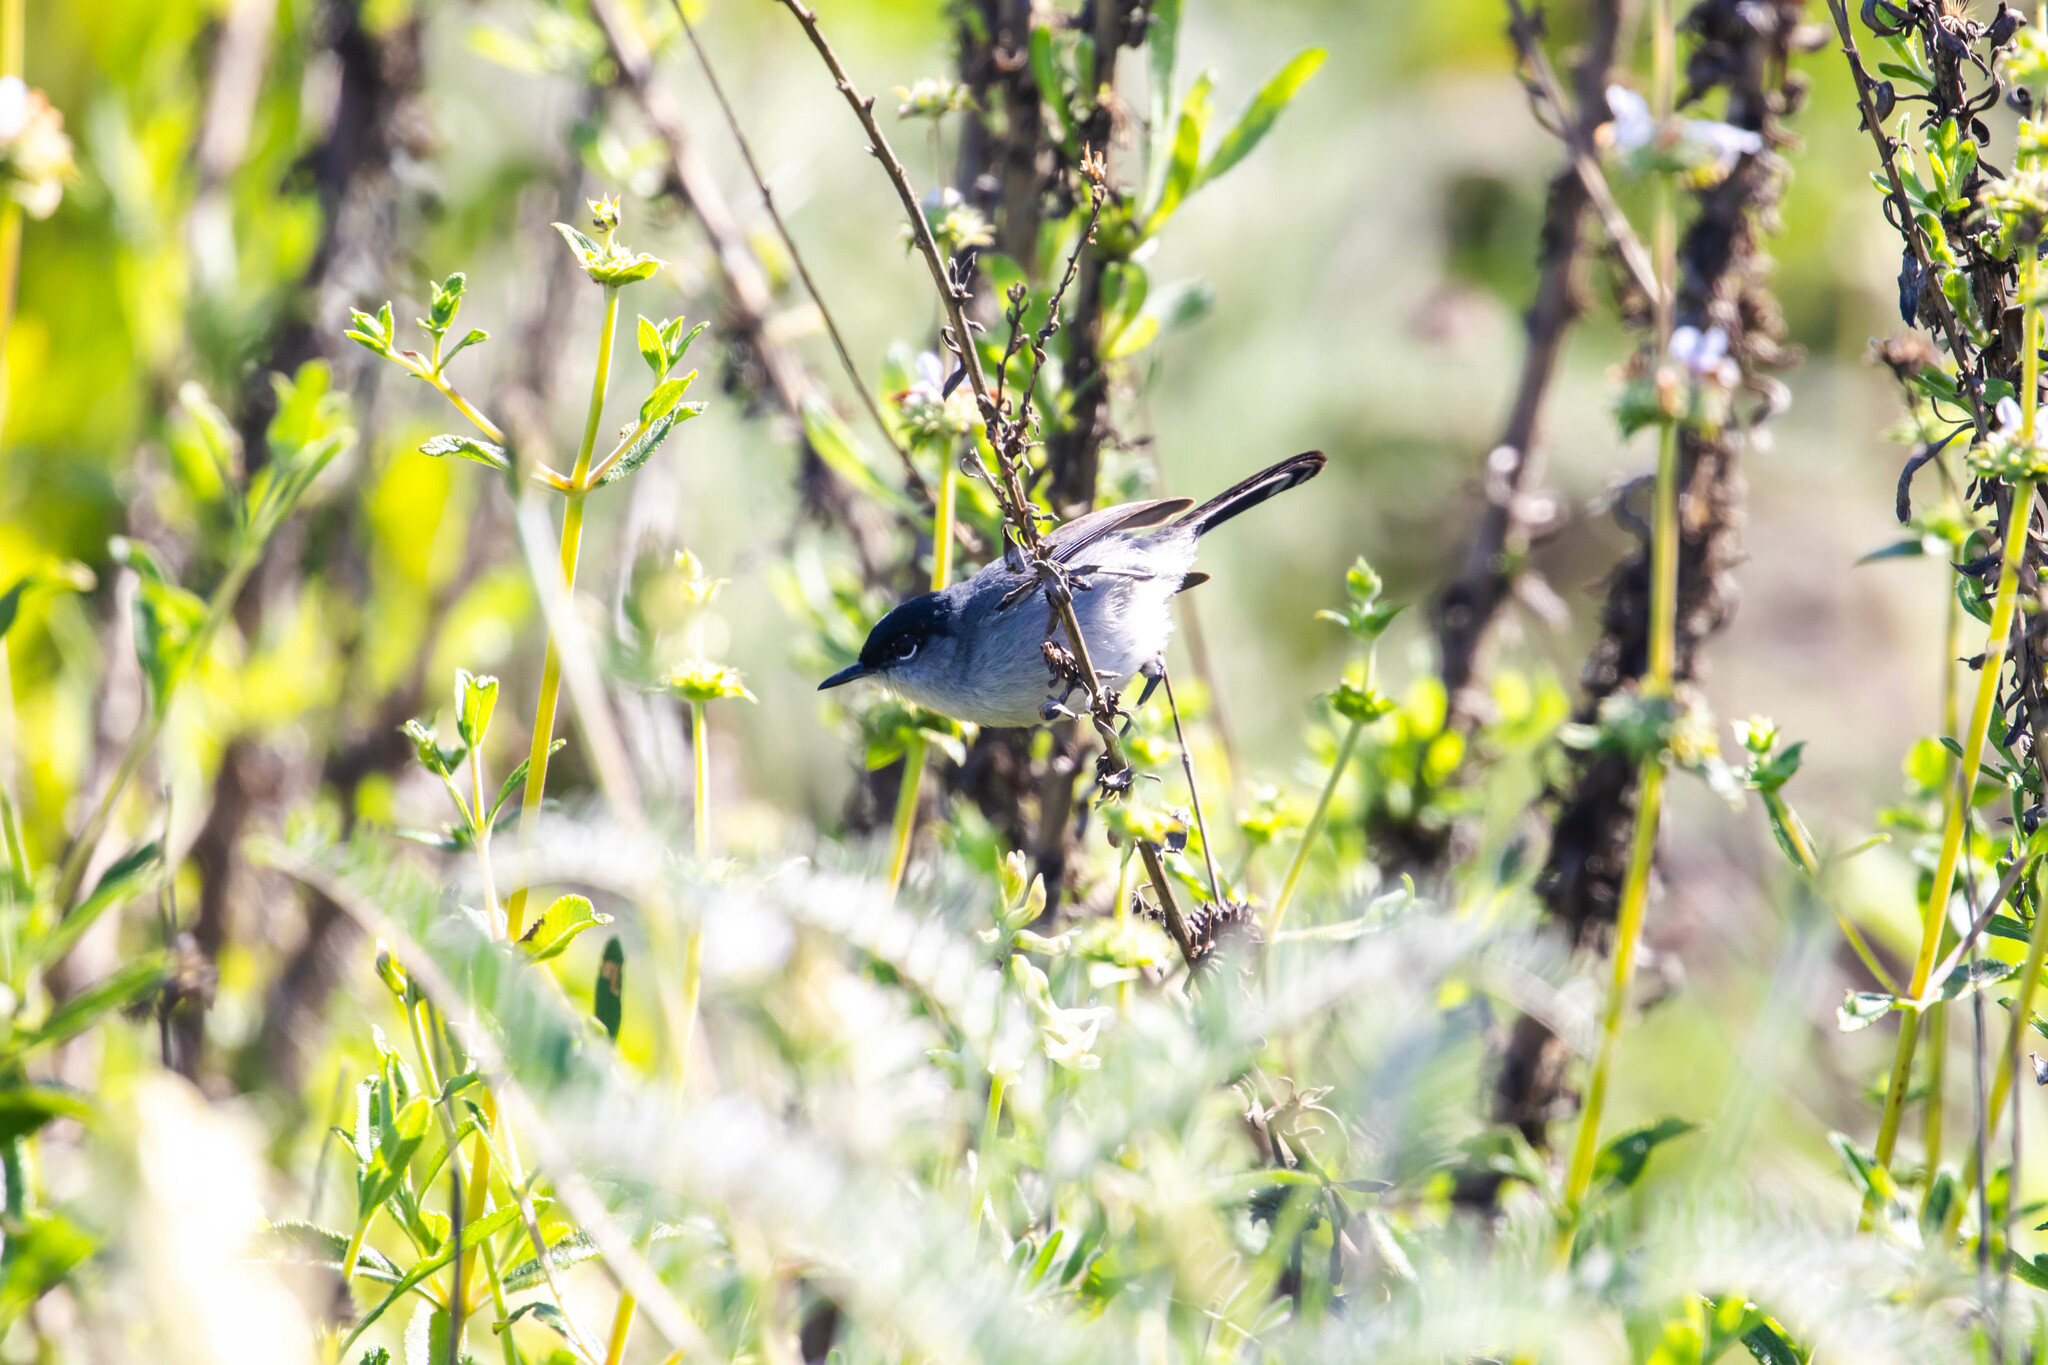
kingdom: Animalia
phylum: Chordata
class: Aves
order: Passeriformes
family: Polioptilidae
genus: Polioptila
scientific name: Polioptila californica
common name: California gnatcatcher
